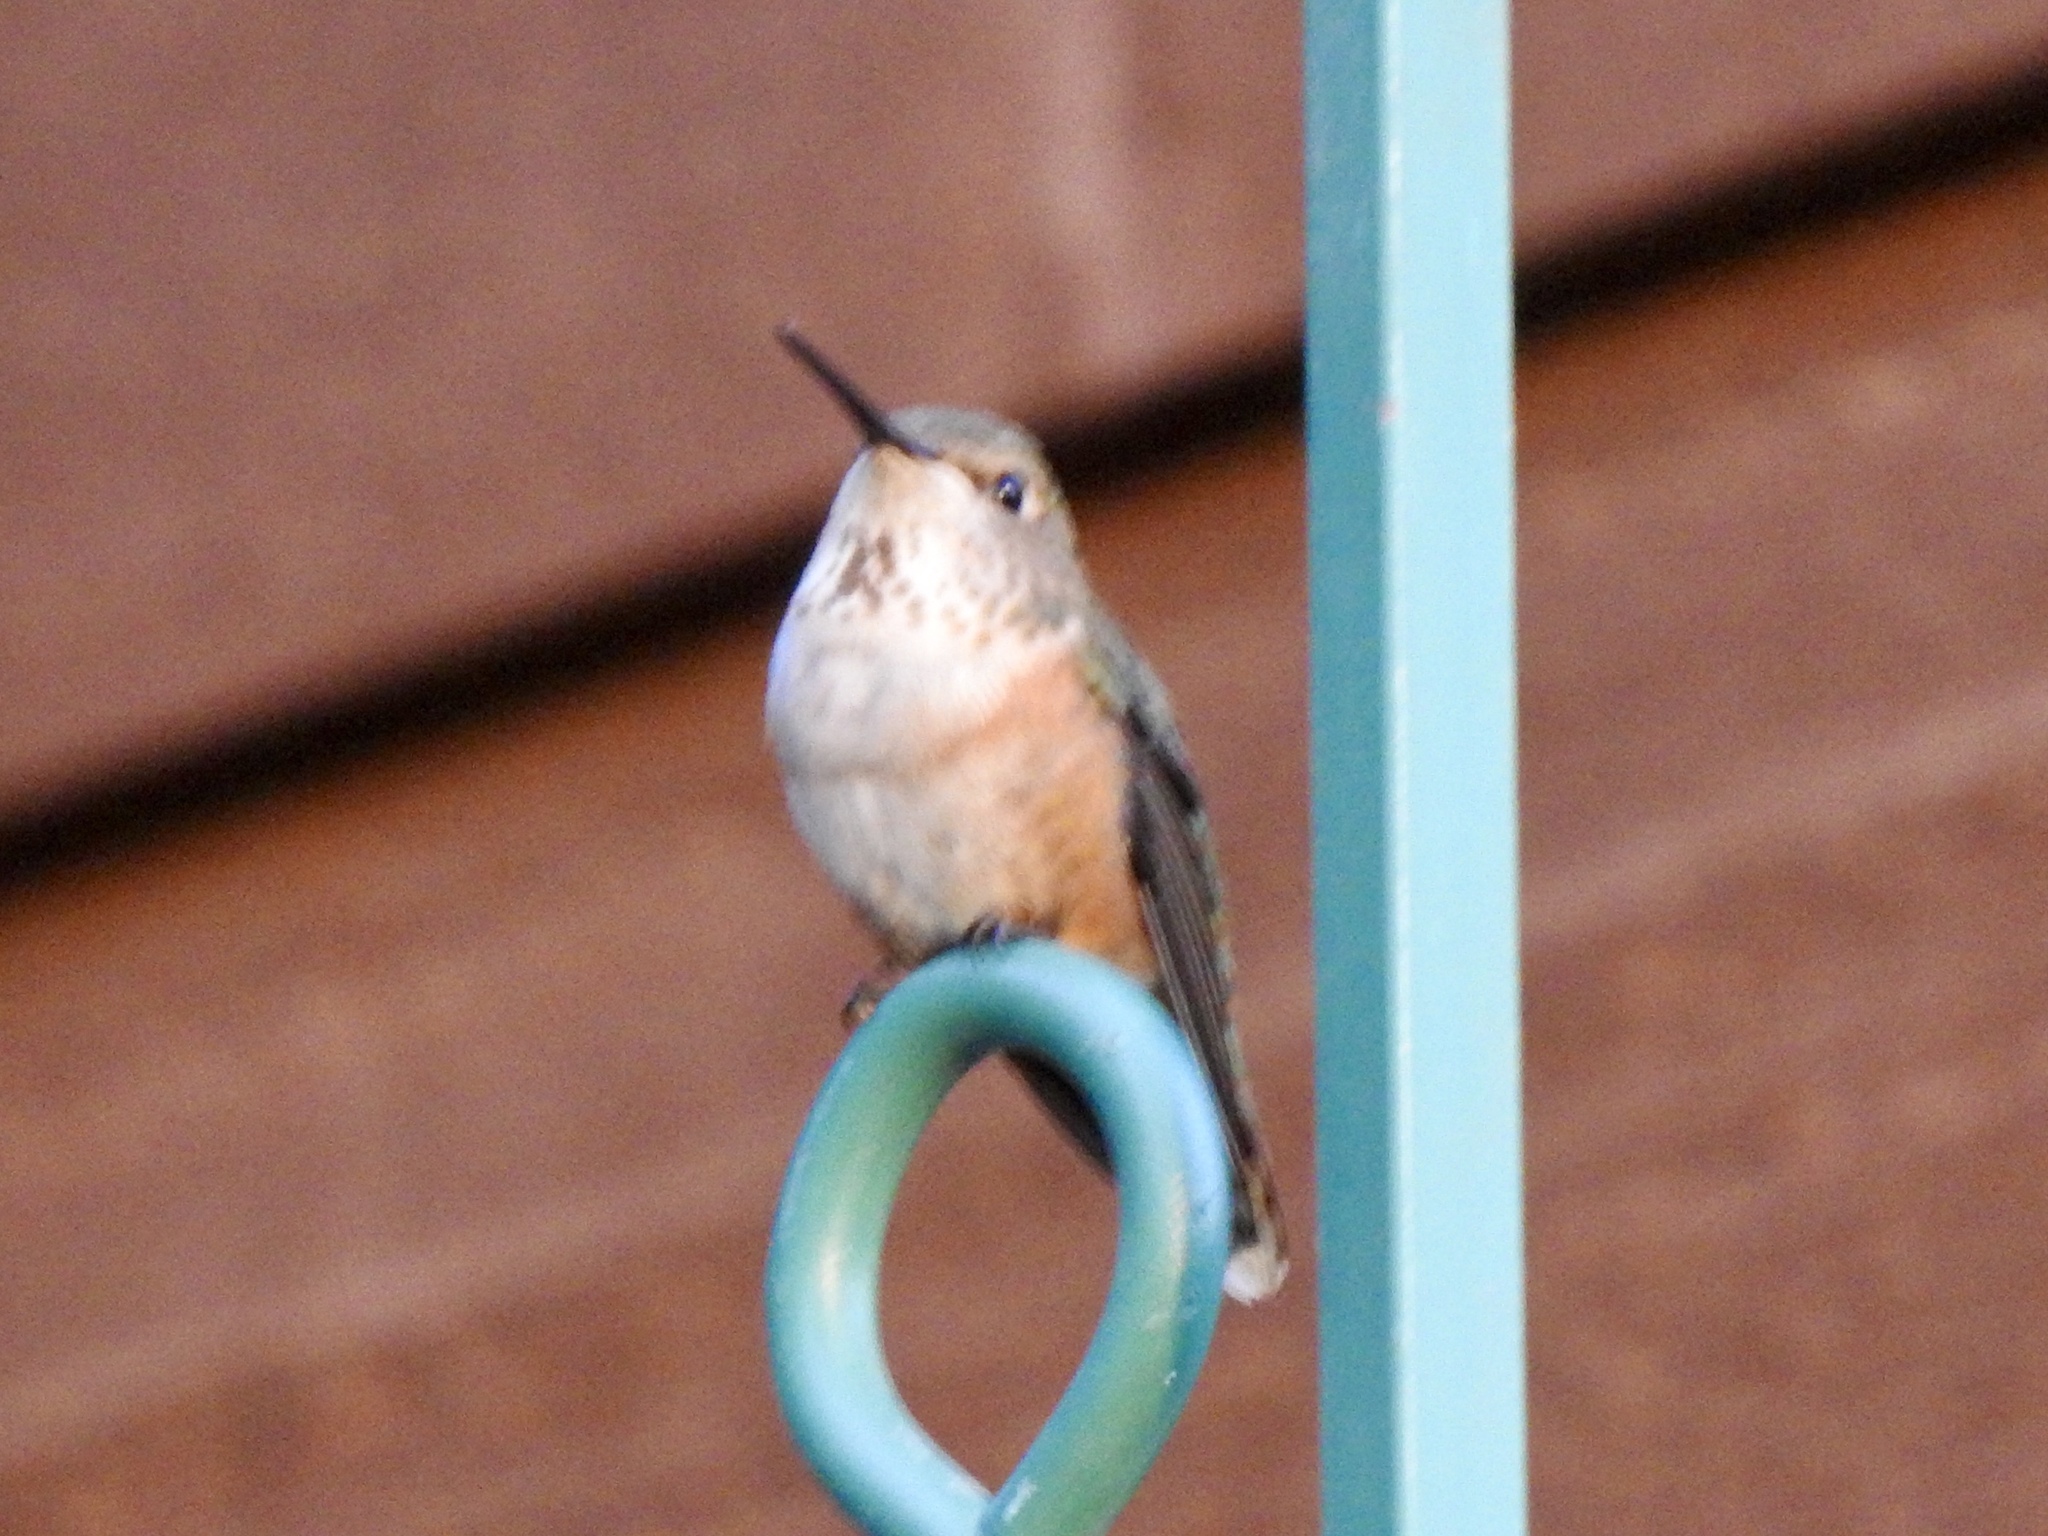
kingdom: Animalia
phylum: Chordata
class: Aves
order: Apodiformes
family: Trochilidae
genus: Selasphorus
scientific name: Selasphorus rufus
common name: Rufous hummingbird
